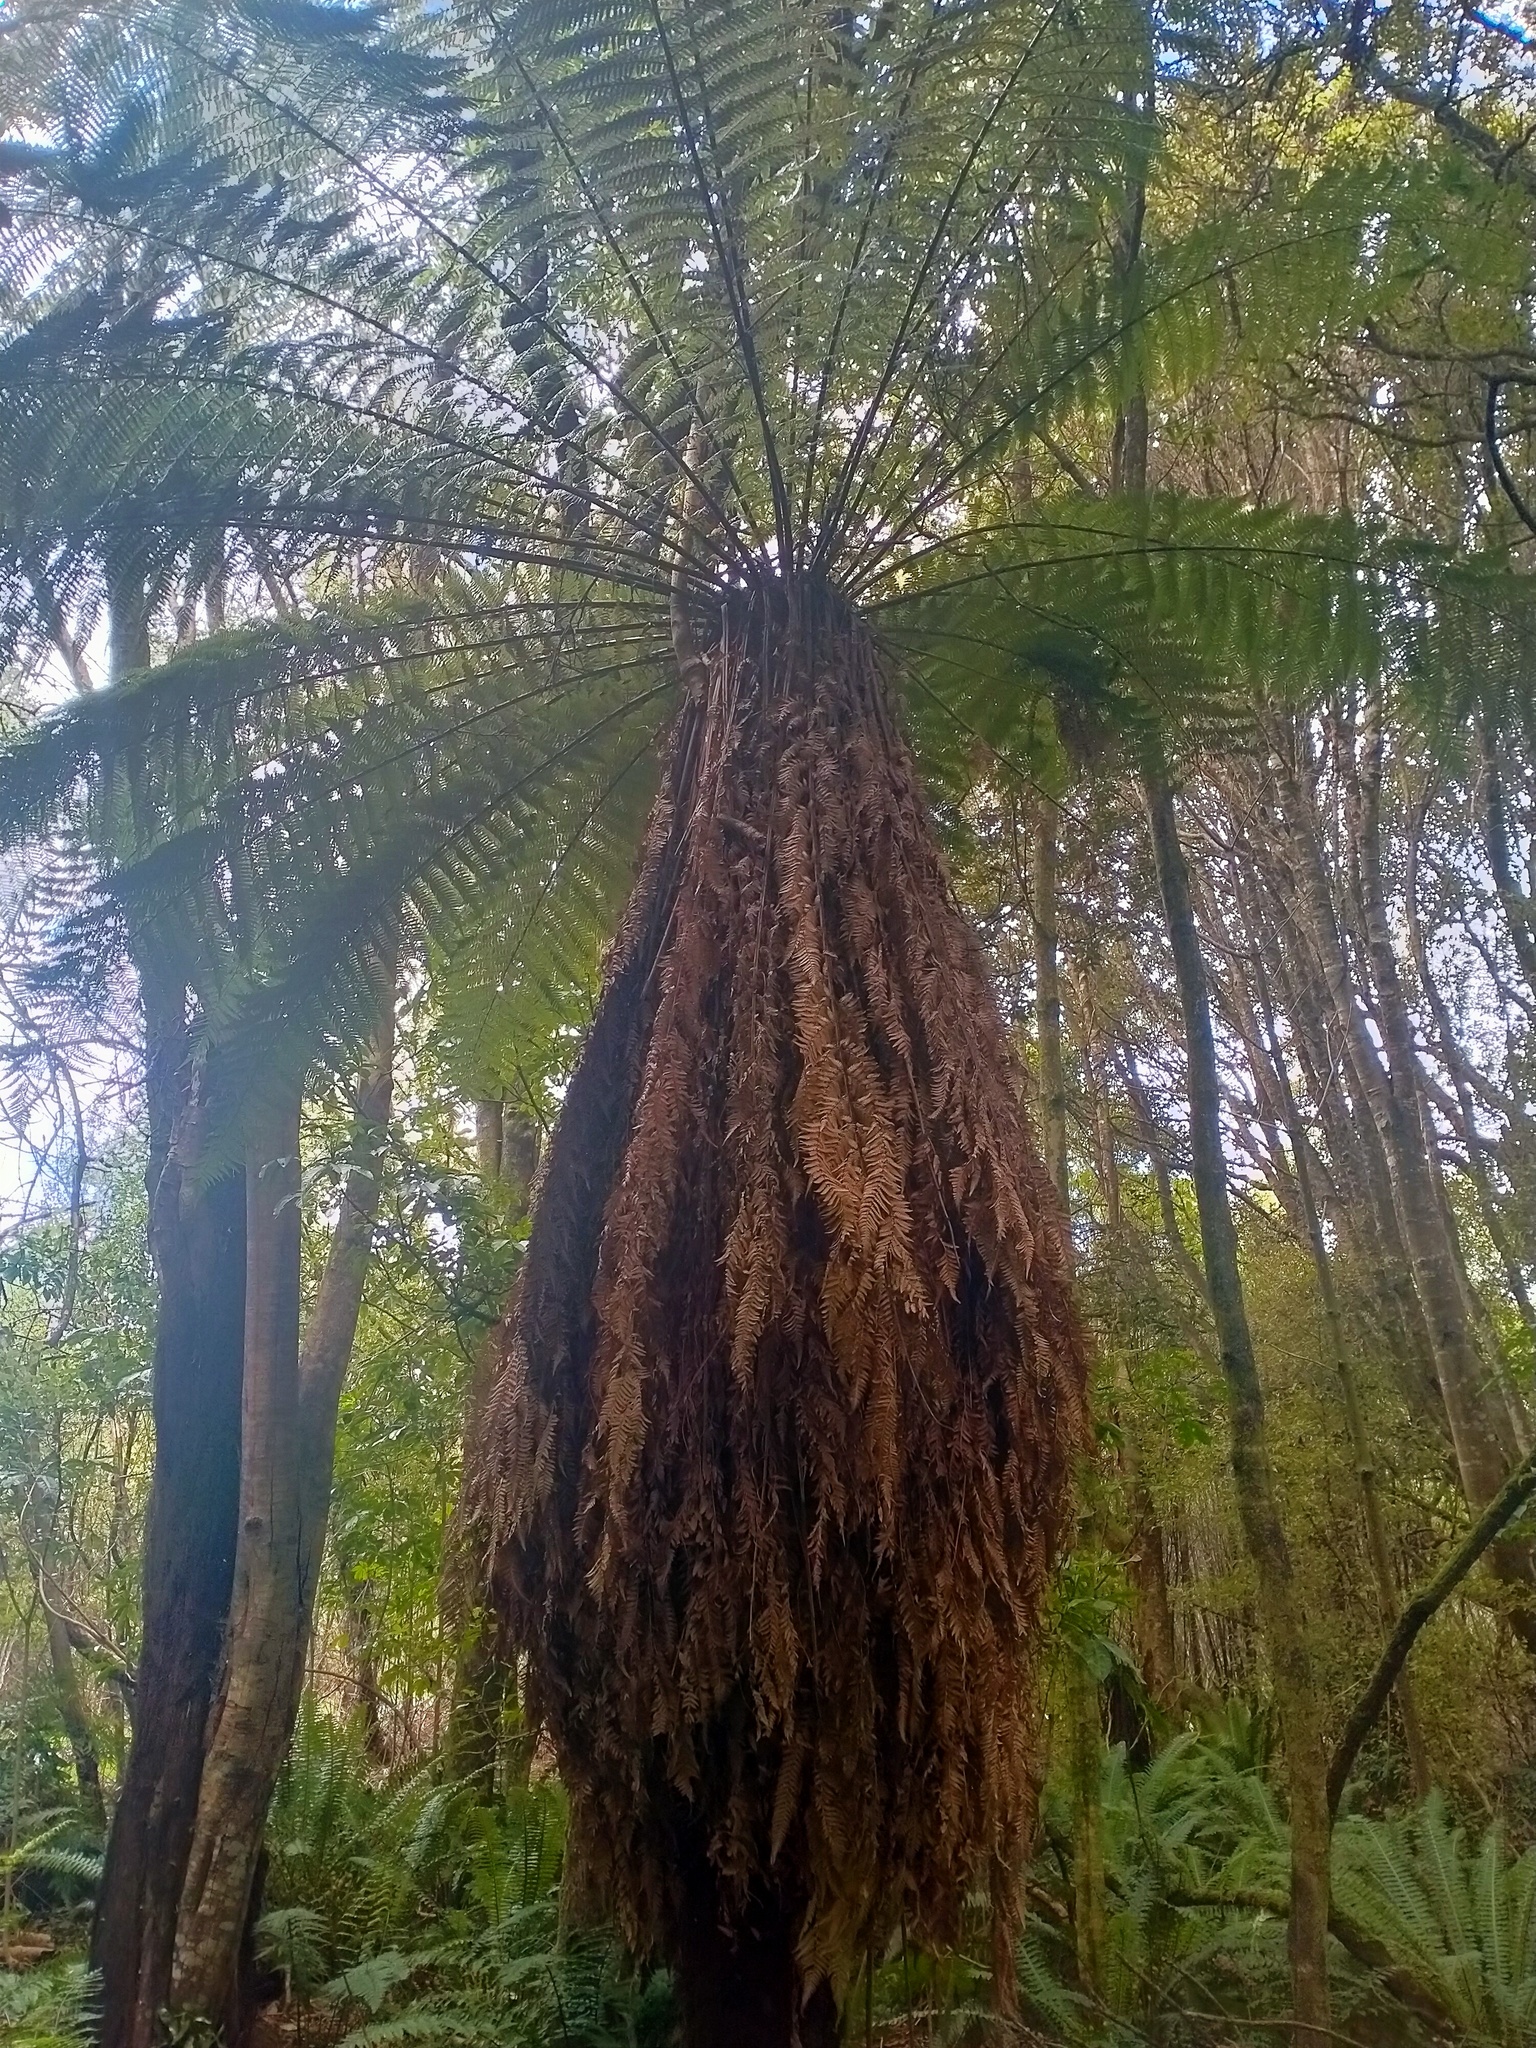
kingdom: Plantae
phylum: Tracheophyta
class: Polypodiopsida
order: Cyatheales
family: Dicksoniaceae
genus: Dicksonia
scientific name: Dicksonia fibrosa
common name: Golden tree fern
